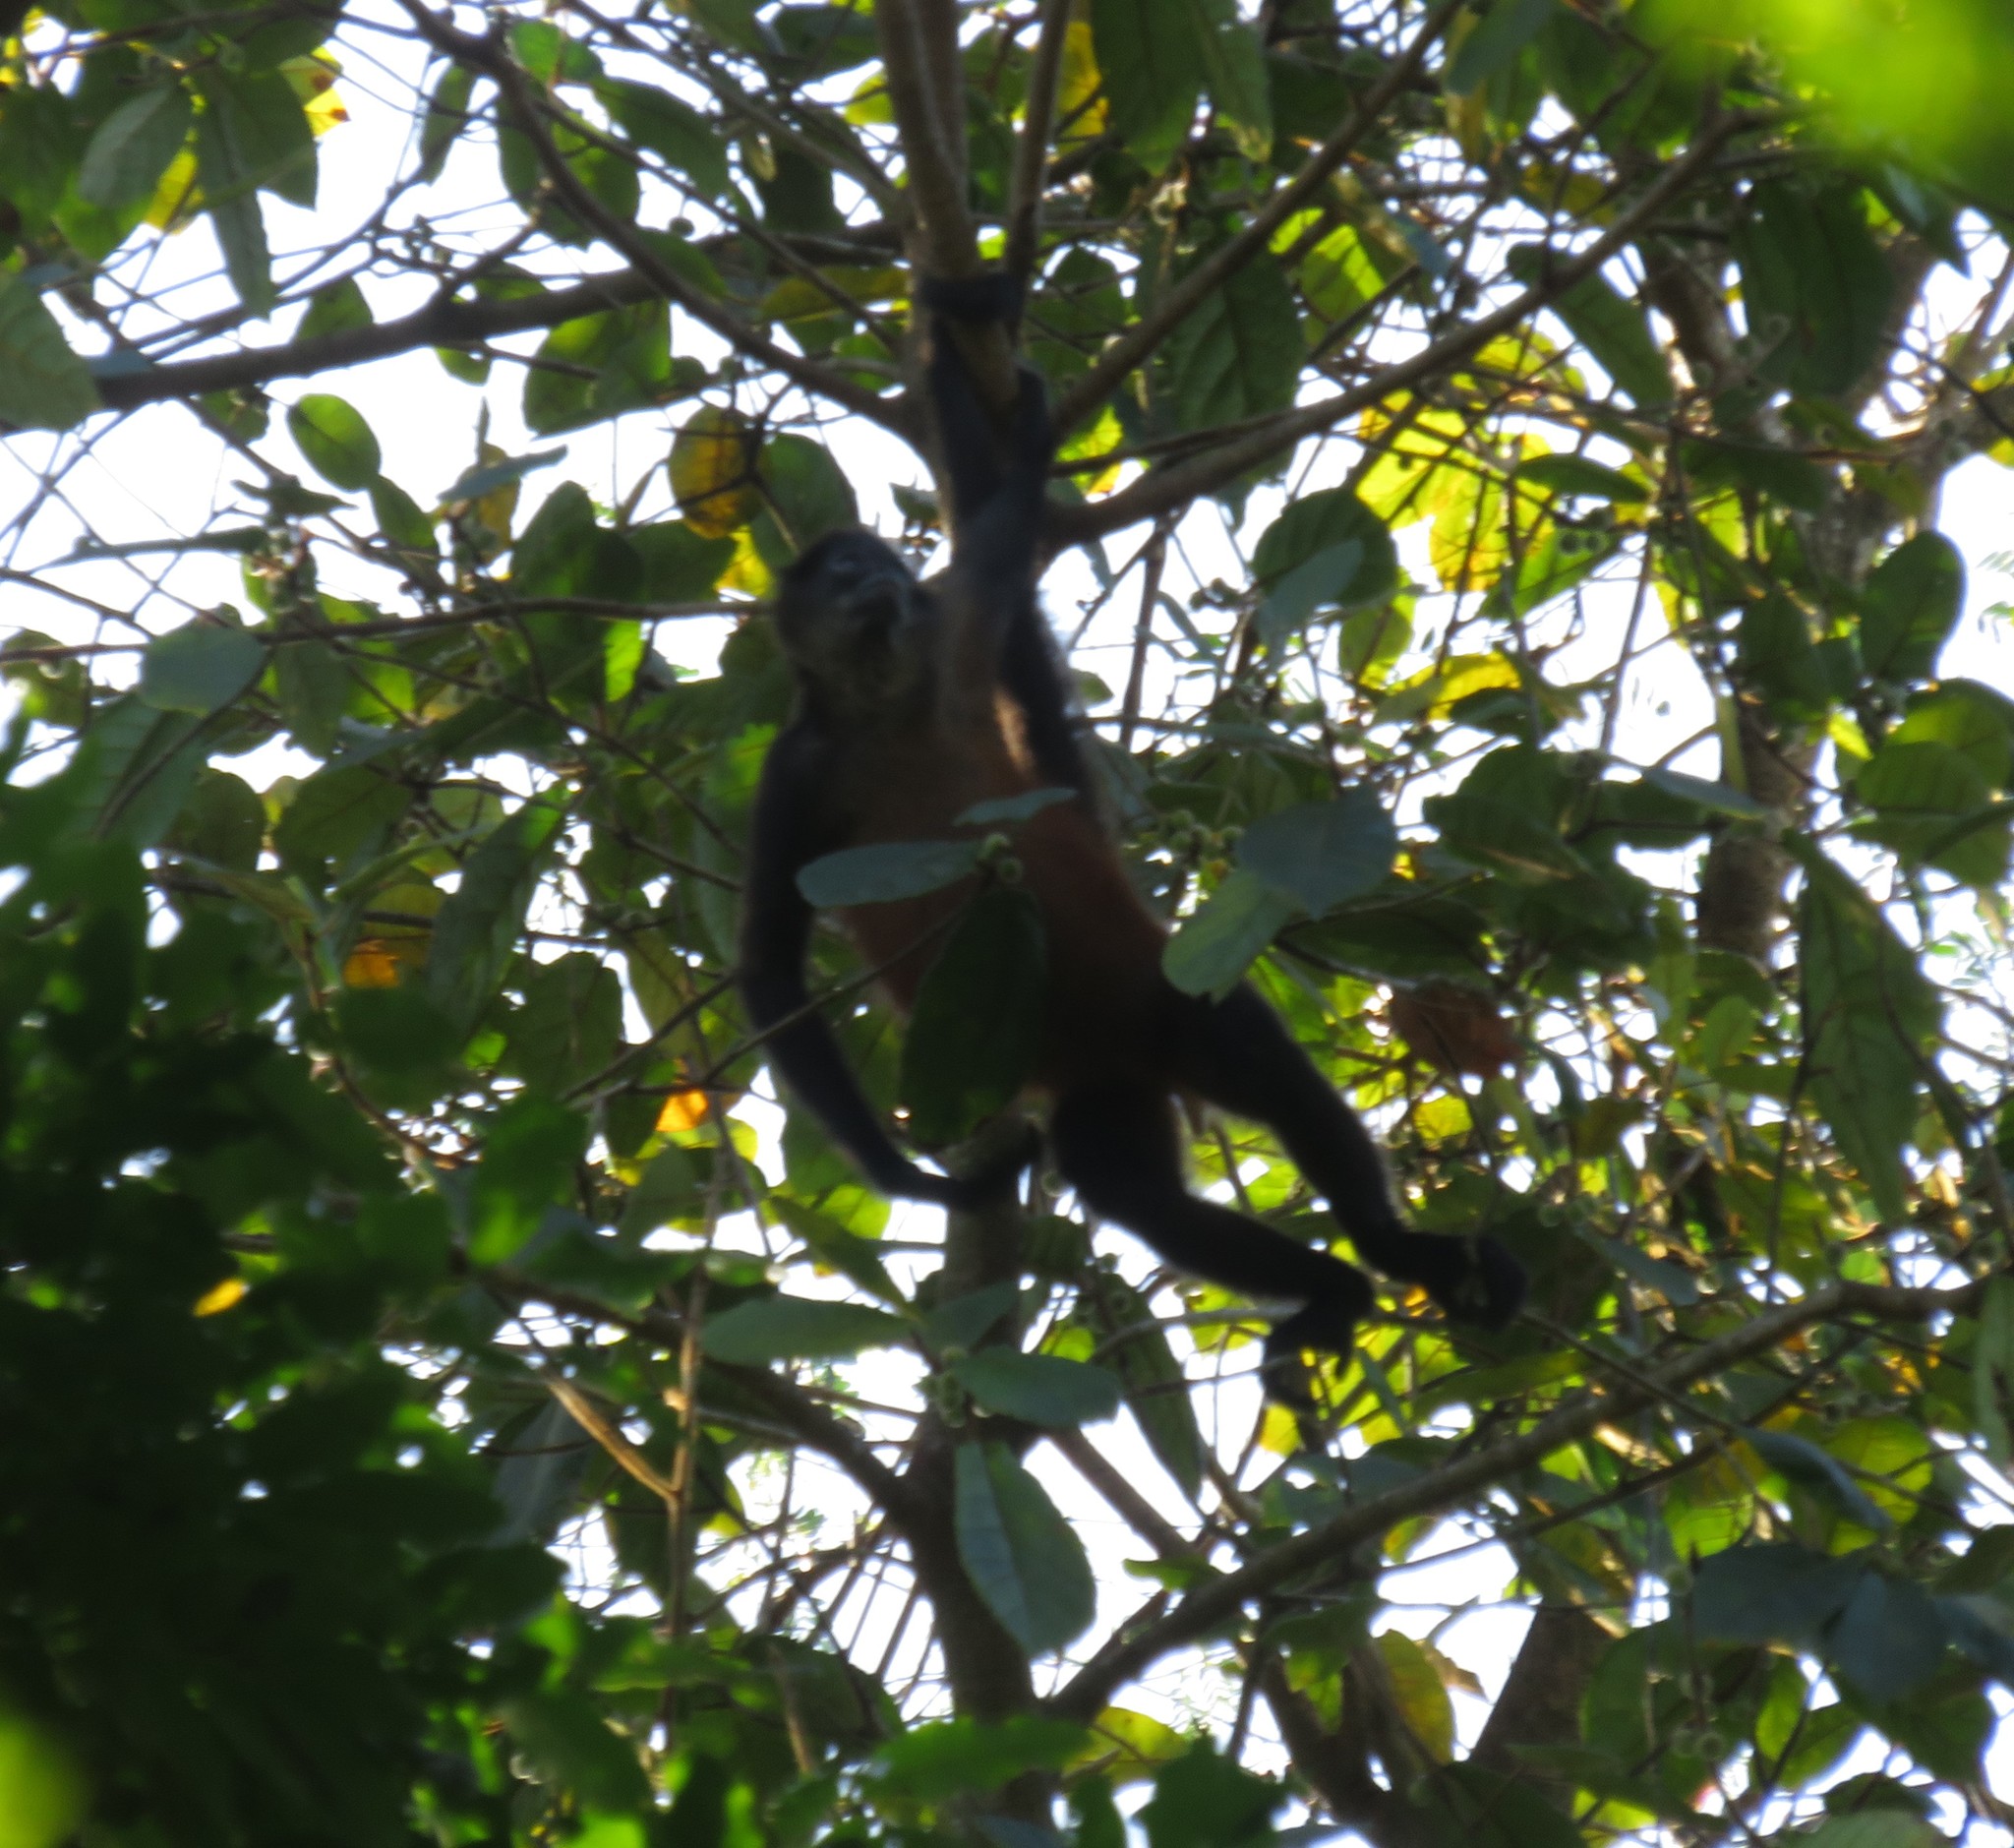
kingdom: Animalia
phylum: Chordata
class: Mammalia
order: Primates
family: Atelidae
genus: Alouatta
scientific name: Alouatta palliata
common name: Mantled howler
